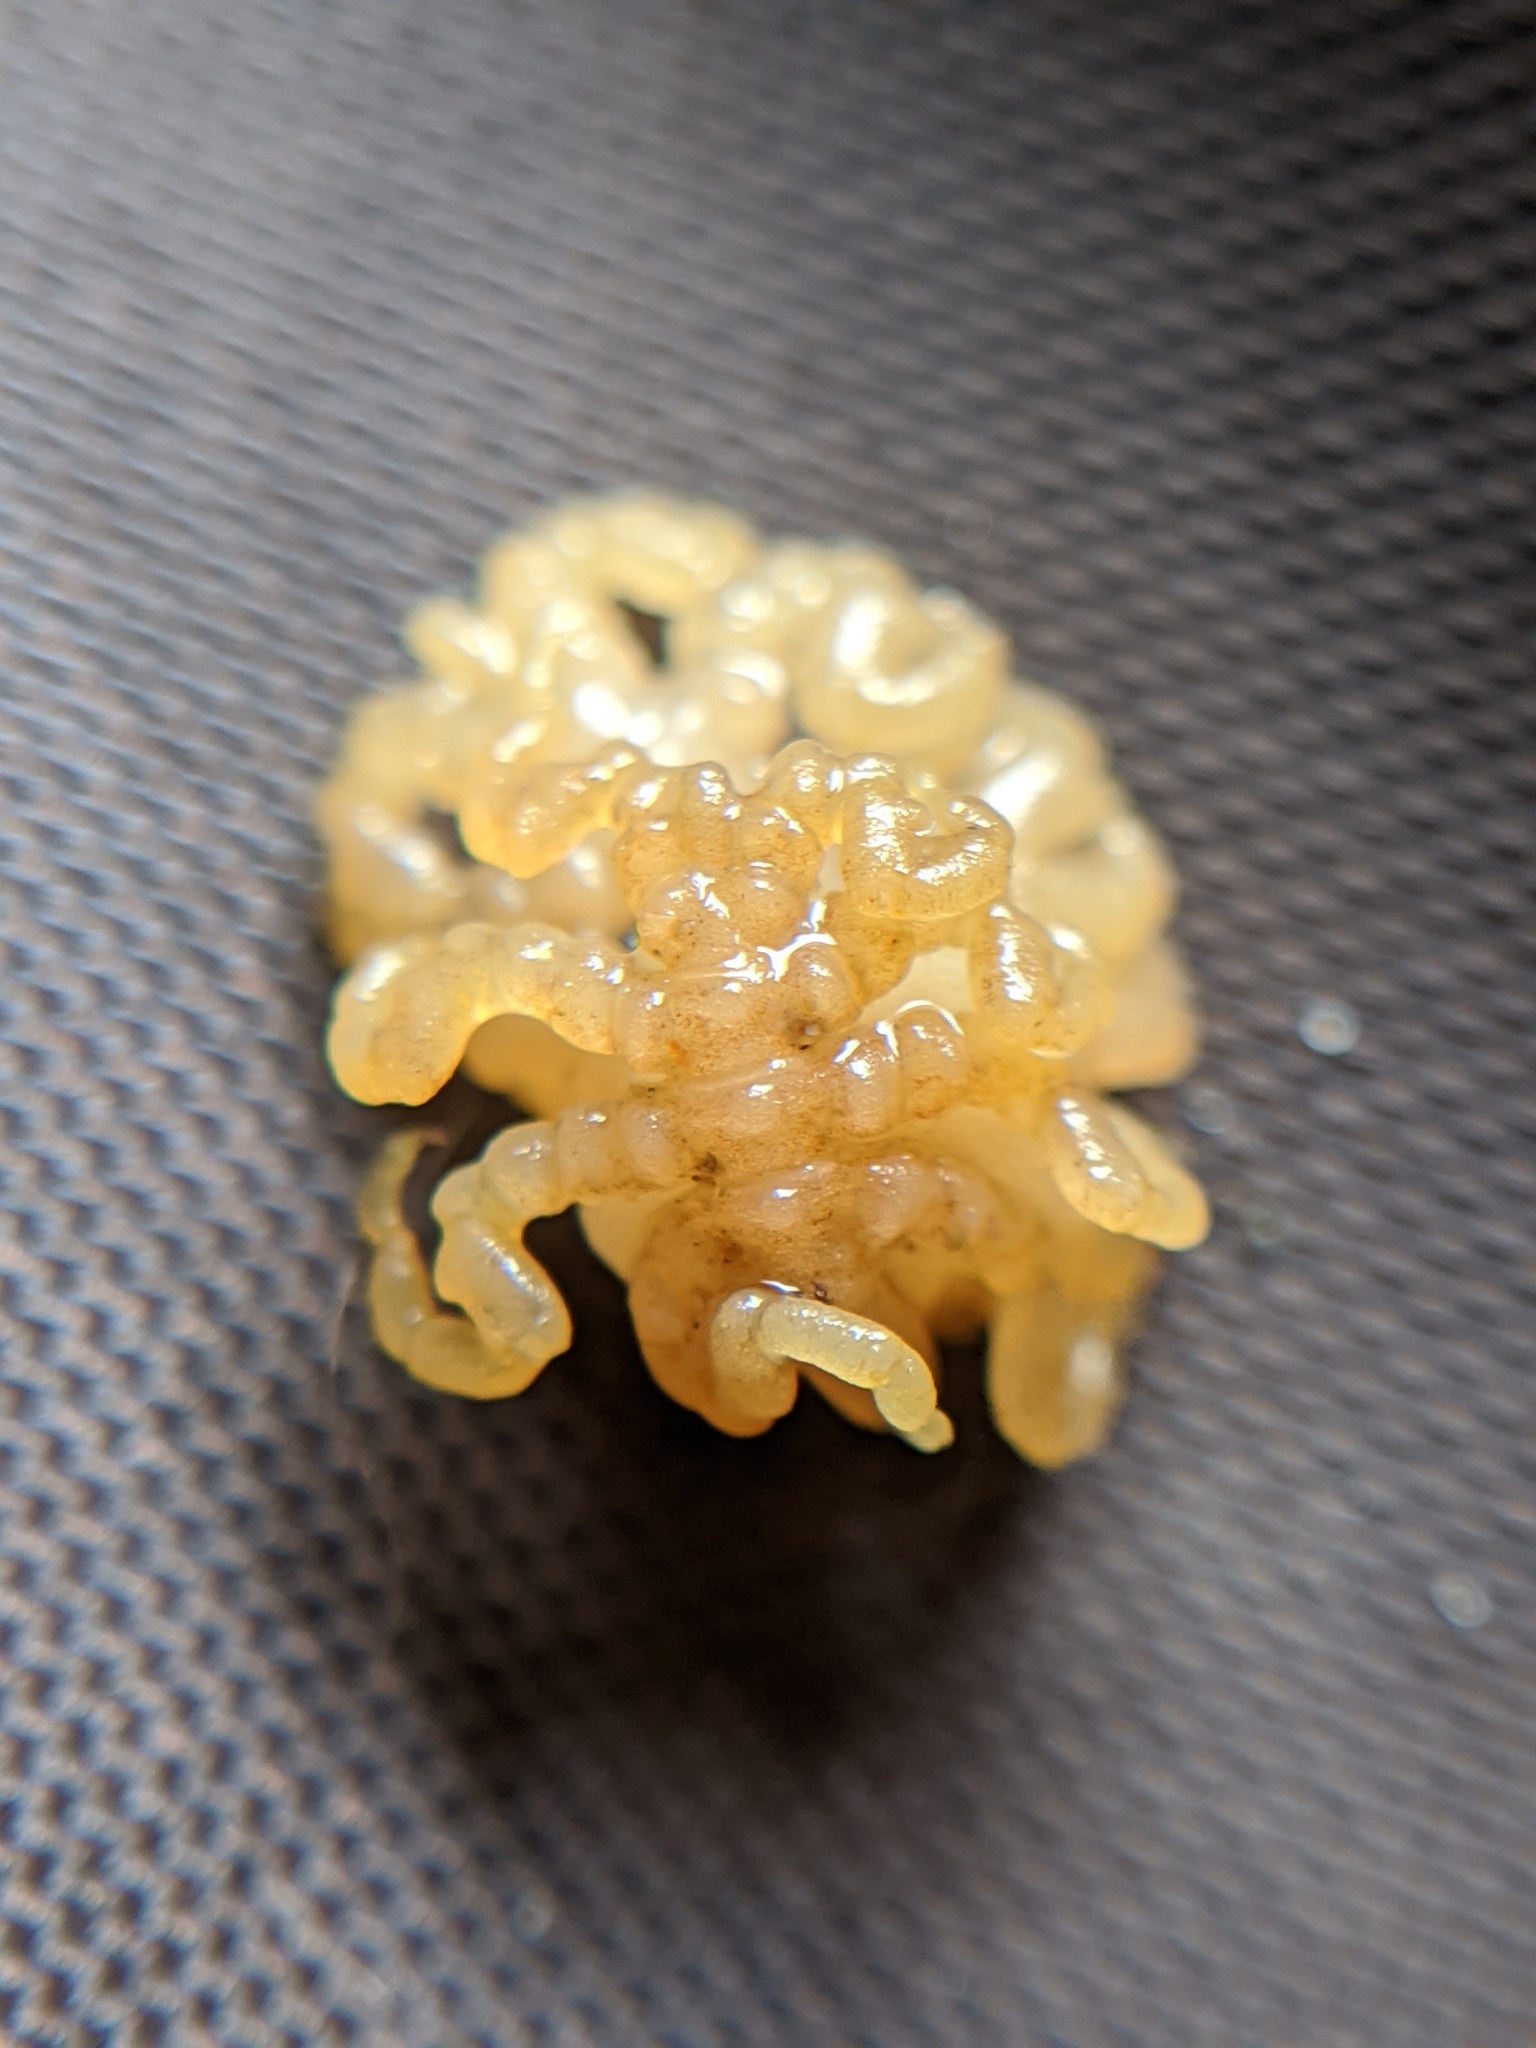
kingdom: Animalia
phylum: Arthropoda
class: Pycnogonida
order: Pantopoda
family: Pycnogonidae
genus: Pycnogonum
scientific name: Pycnogonum stearnsi
